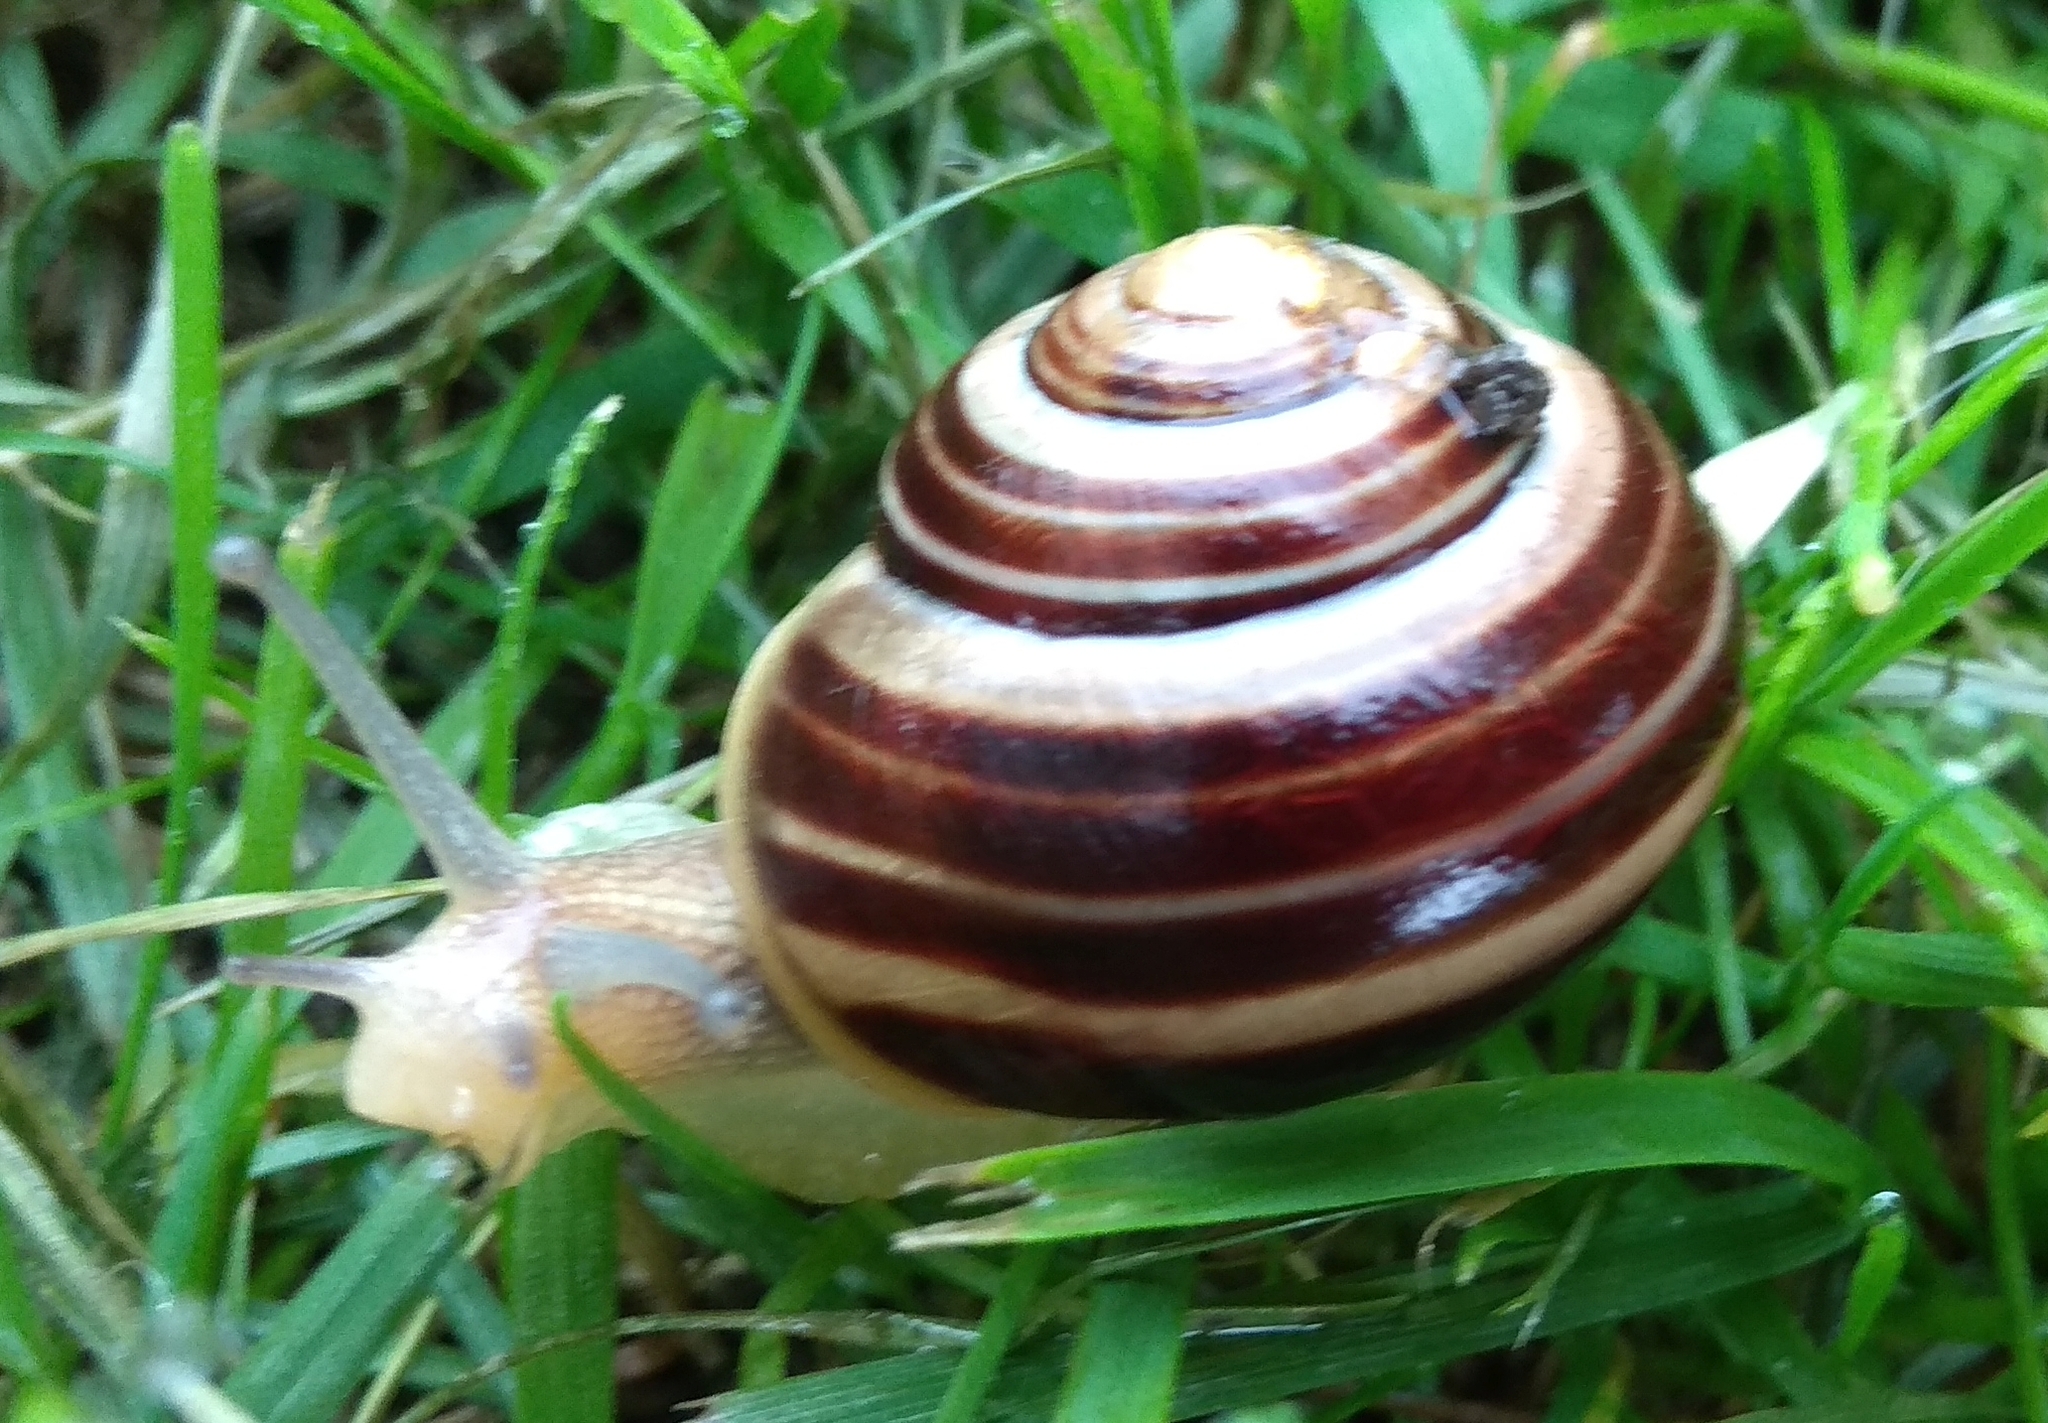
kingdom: Animalia
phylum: Mollusca
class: Gastropoda
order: Stylommatophora
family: Helicidae
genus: Cepaea
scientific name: Cepaea hortensis
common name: White-lip gardensnail
